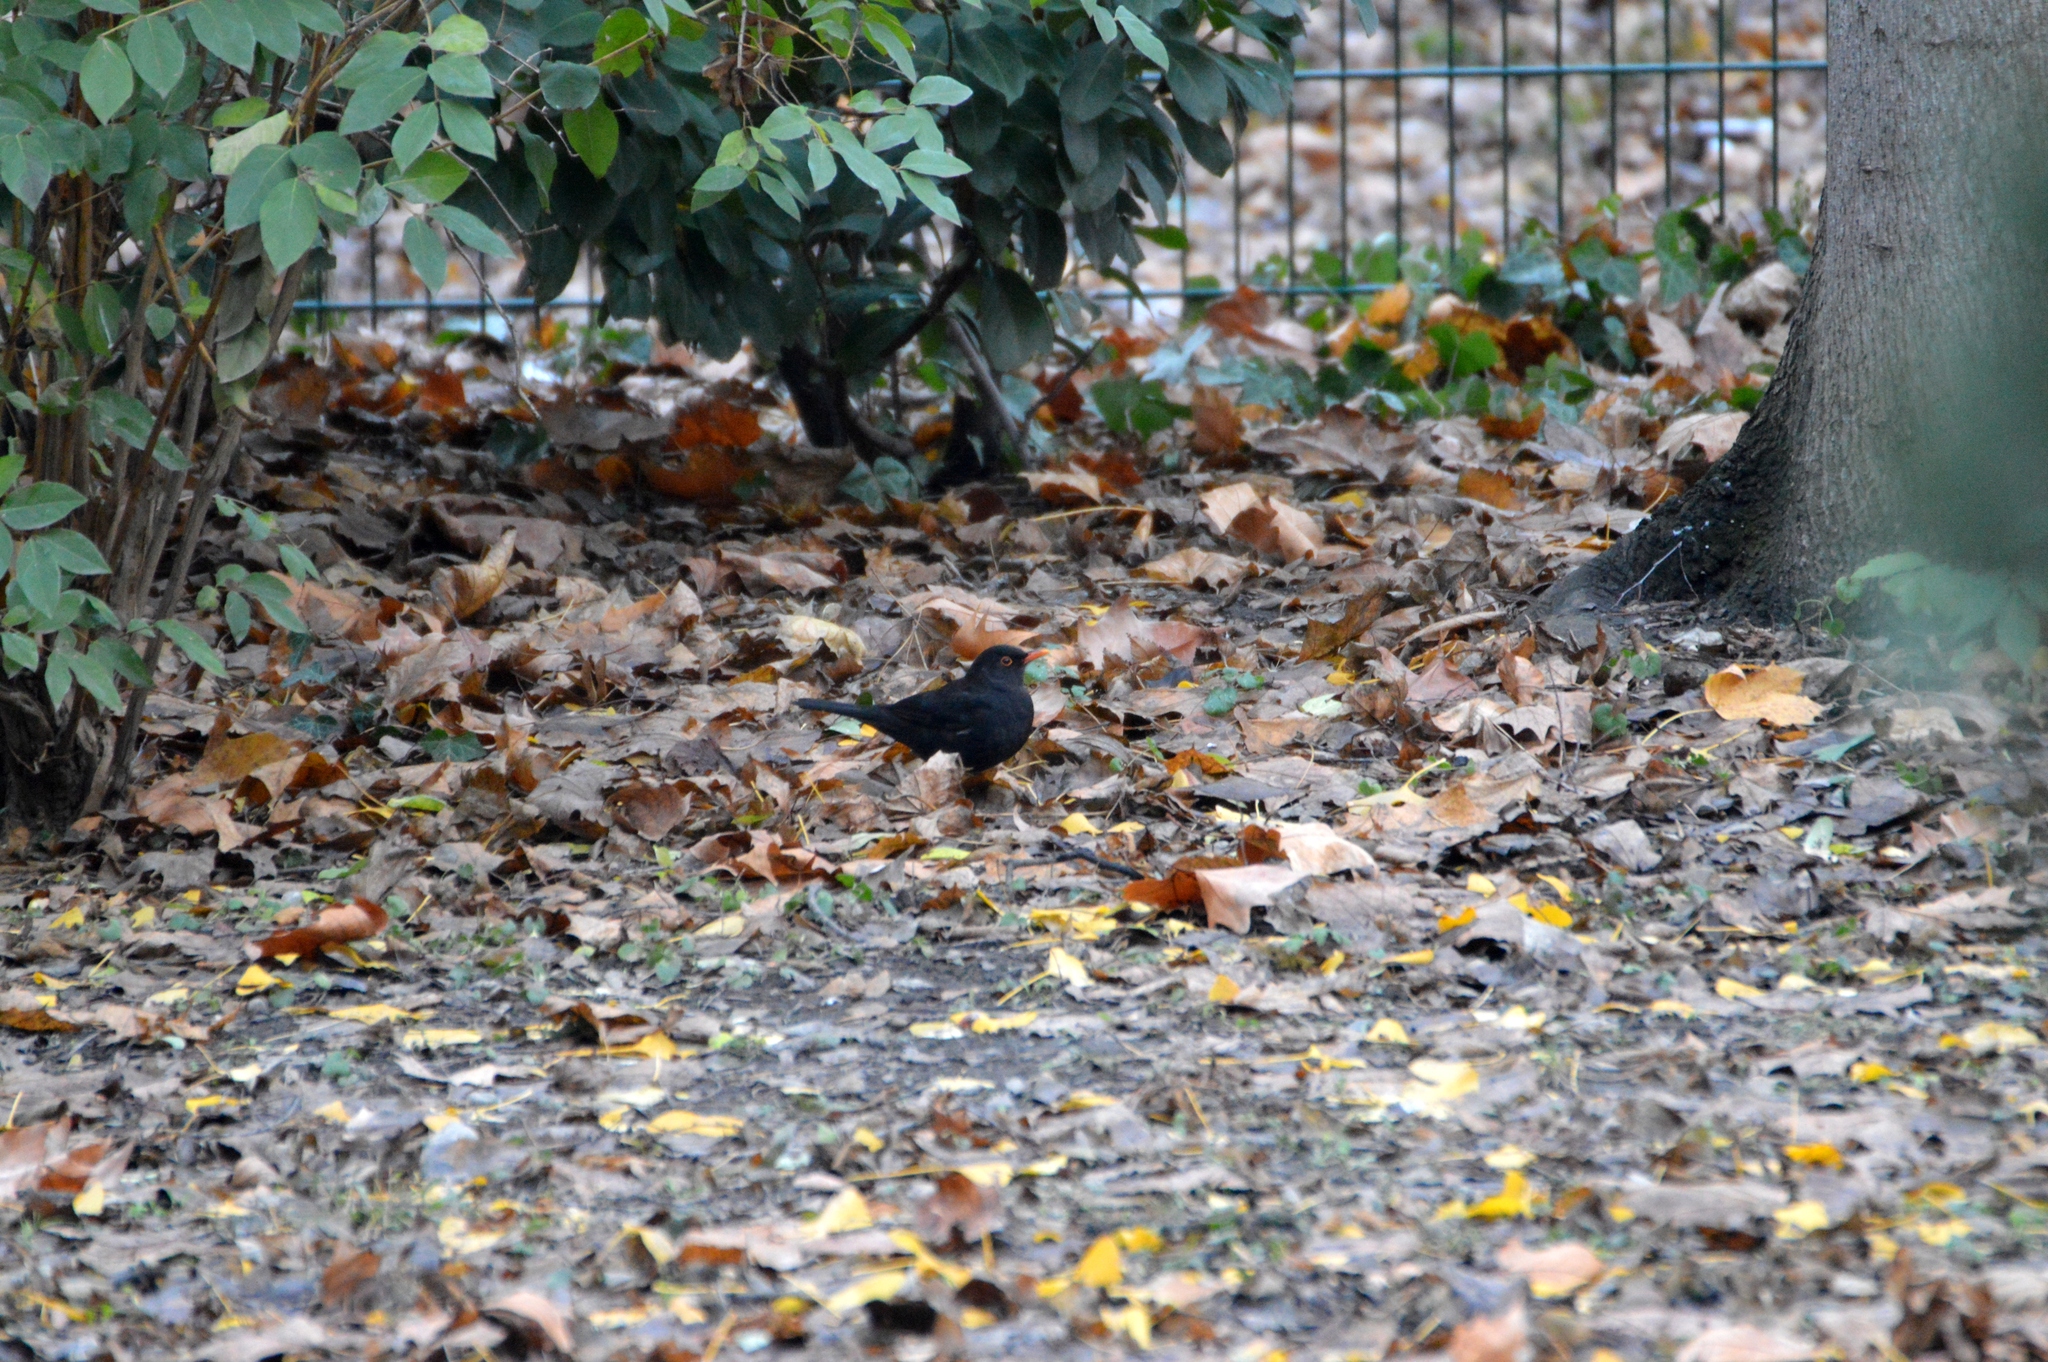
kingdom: Animalia
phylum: Chordata
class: Aves
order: Passeriformes
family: Turdidae
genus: Turdus
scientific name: Turdus merula
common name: Common blackbird
